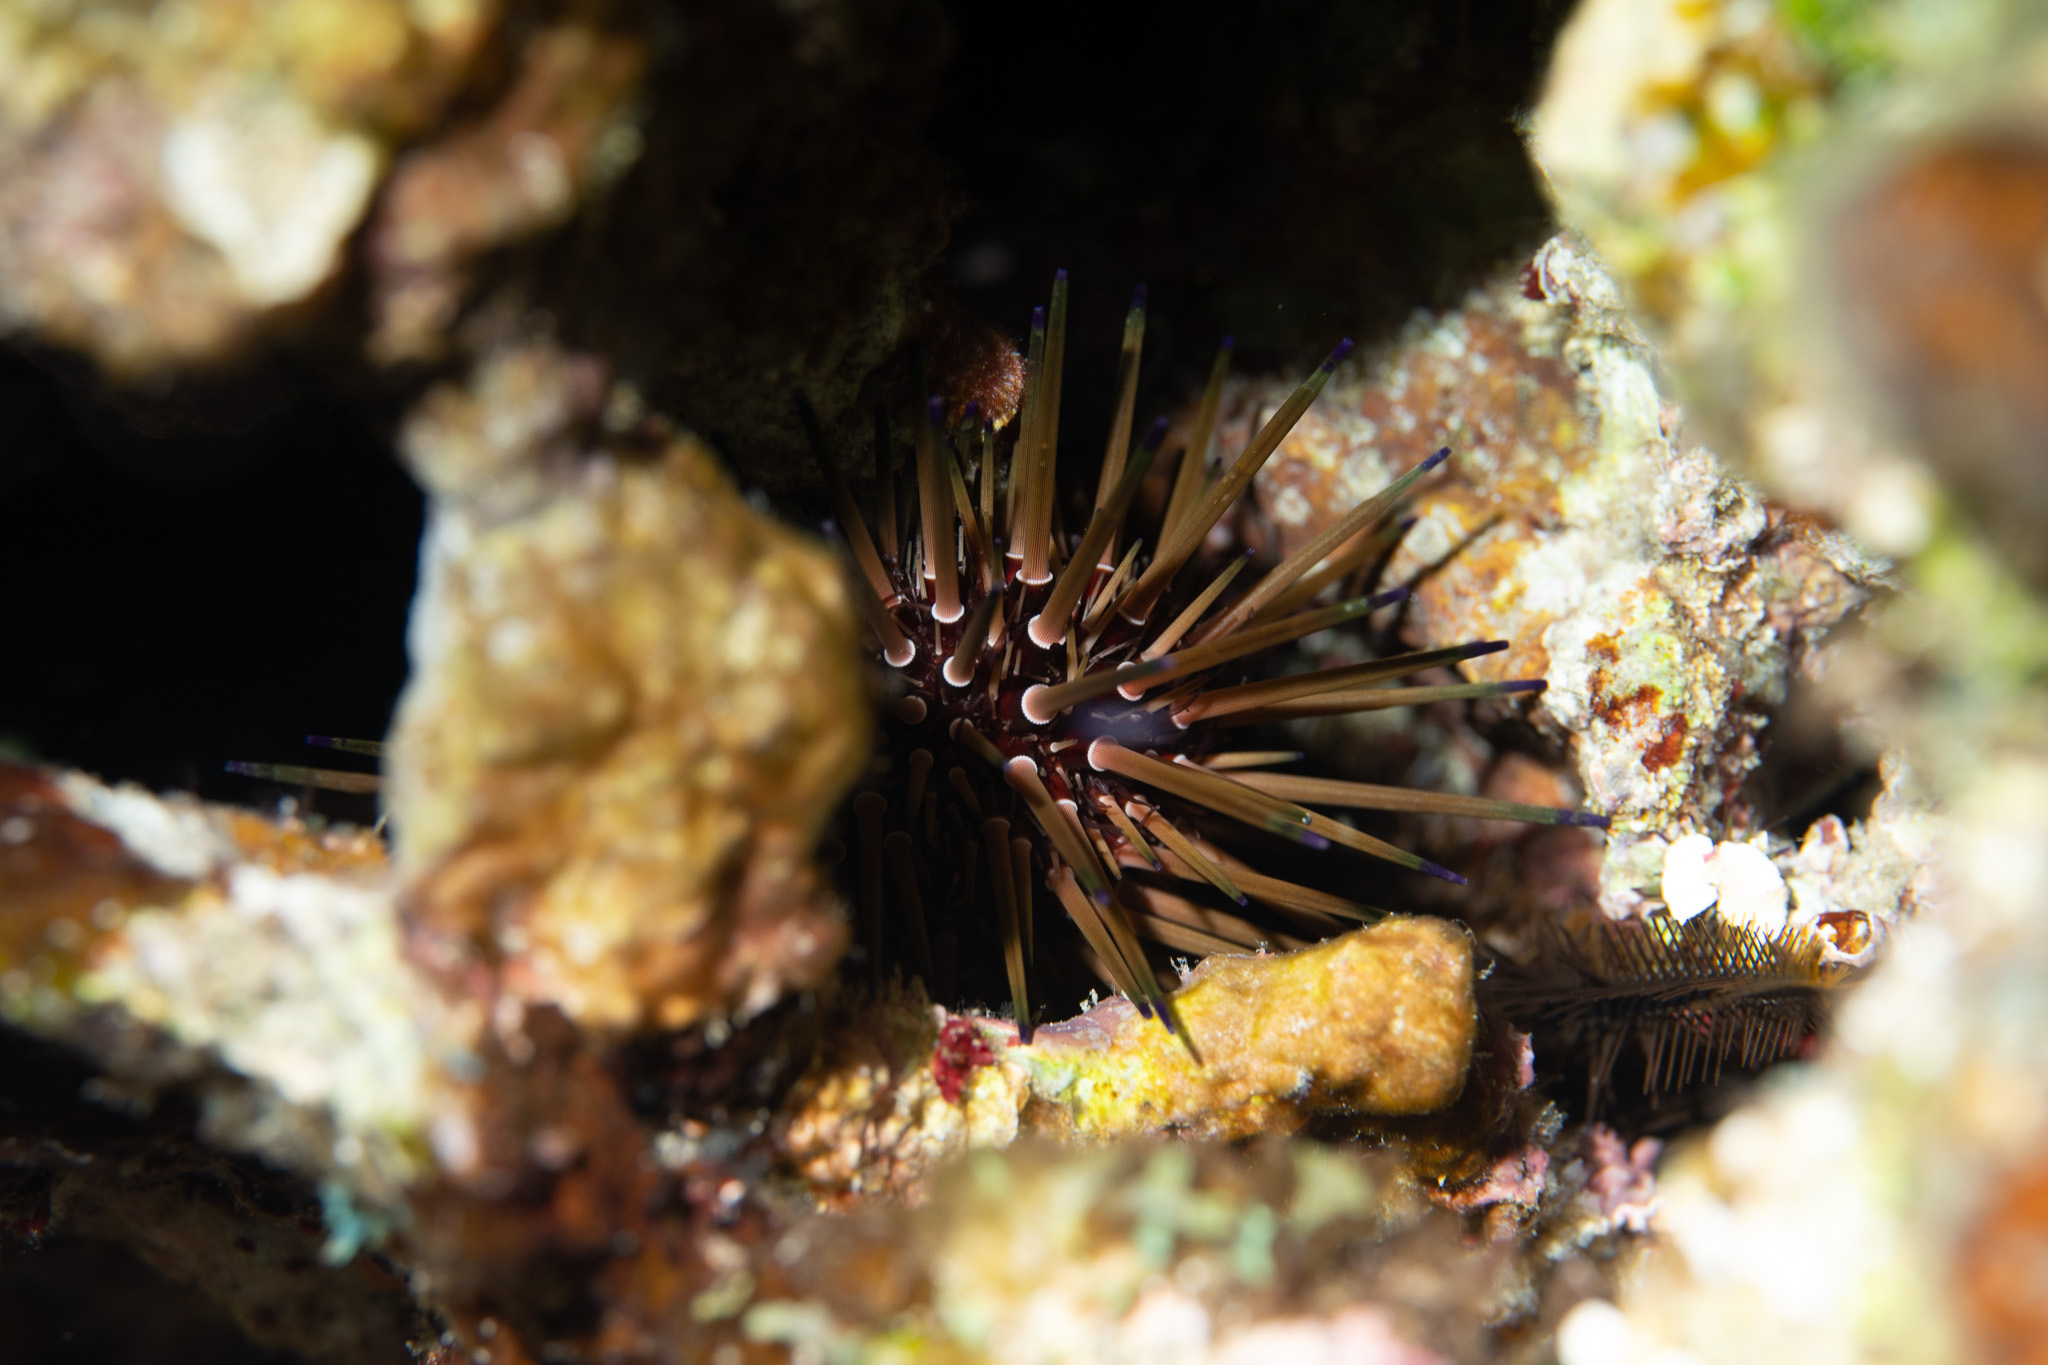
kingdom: Animalia
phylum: Echinodermata
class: Echinoidea
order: Camarodonta
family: Echinometridae
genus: Echinometra
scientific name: Echinometra viridis
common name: Reef urchin
